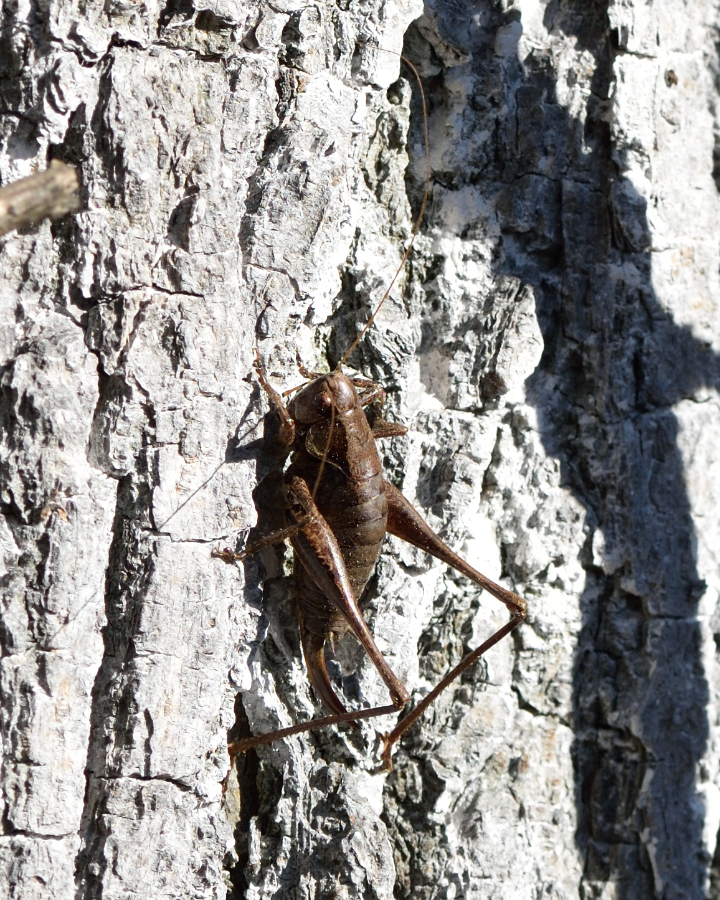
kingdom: Animalia
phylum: Arthropoda
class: Insecta
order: Orthoptera
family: Tettigoniidae
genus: Pholidoptera
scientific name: Pholidoptera griseoaptera
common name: Dark bush-cricket
